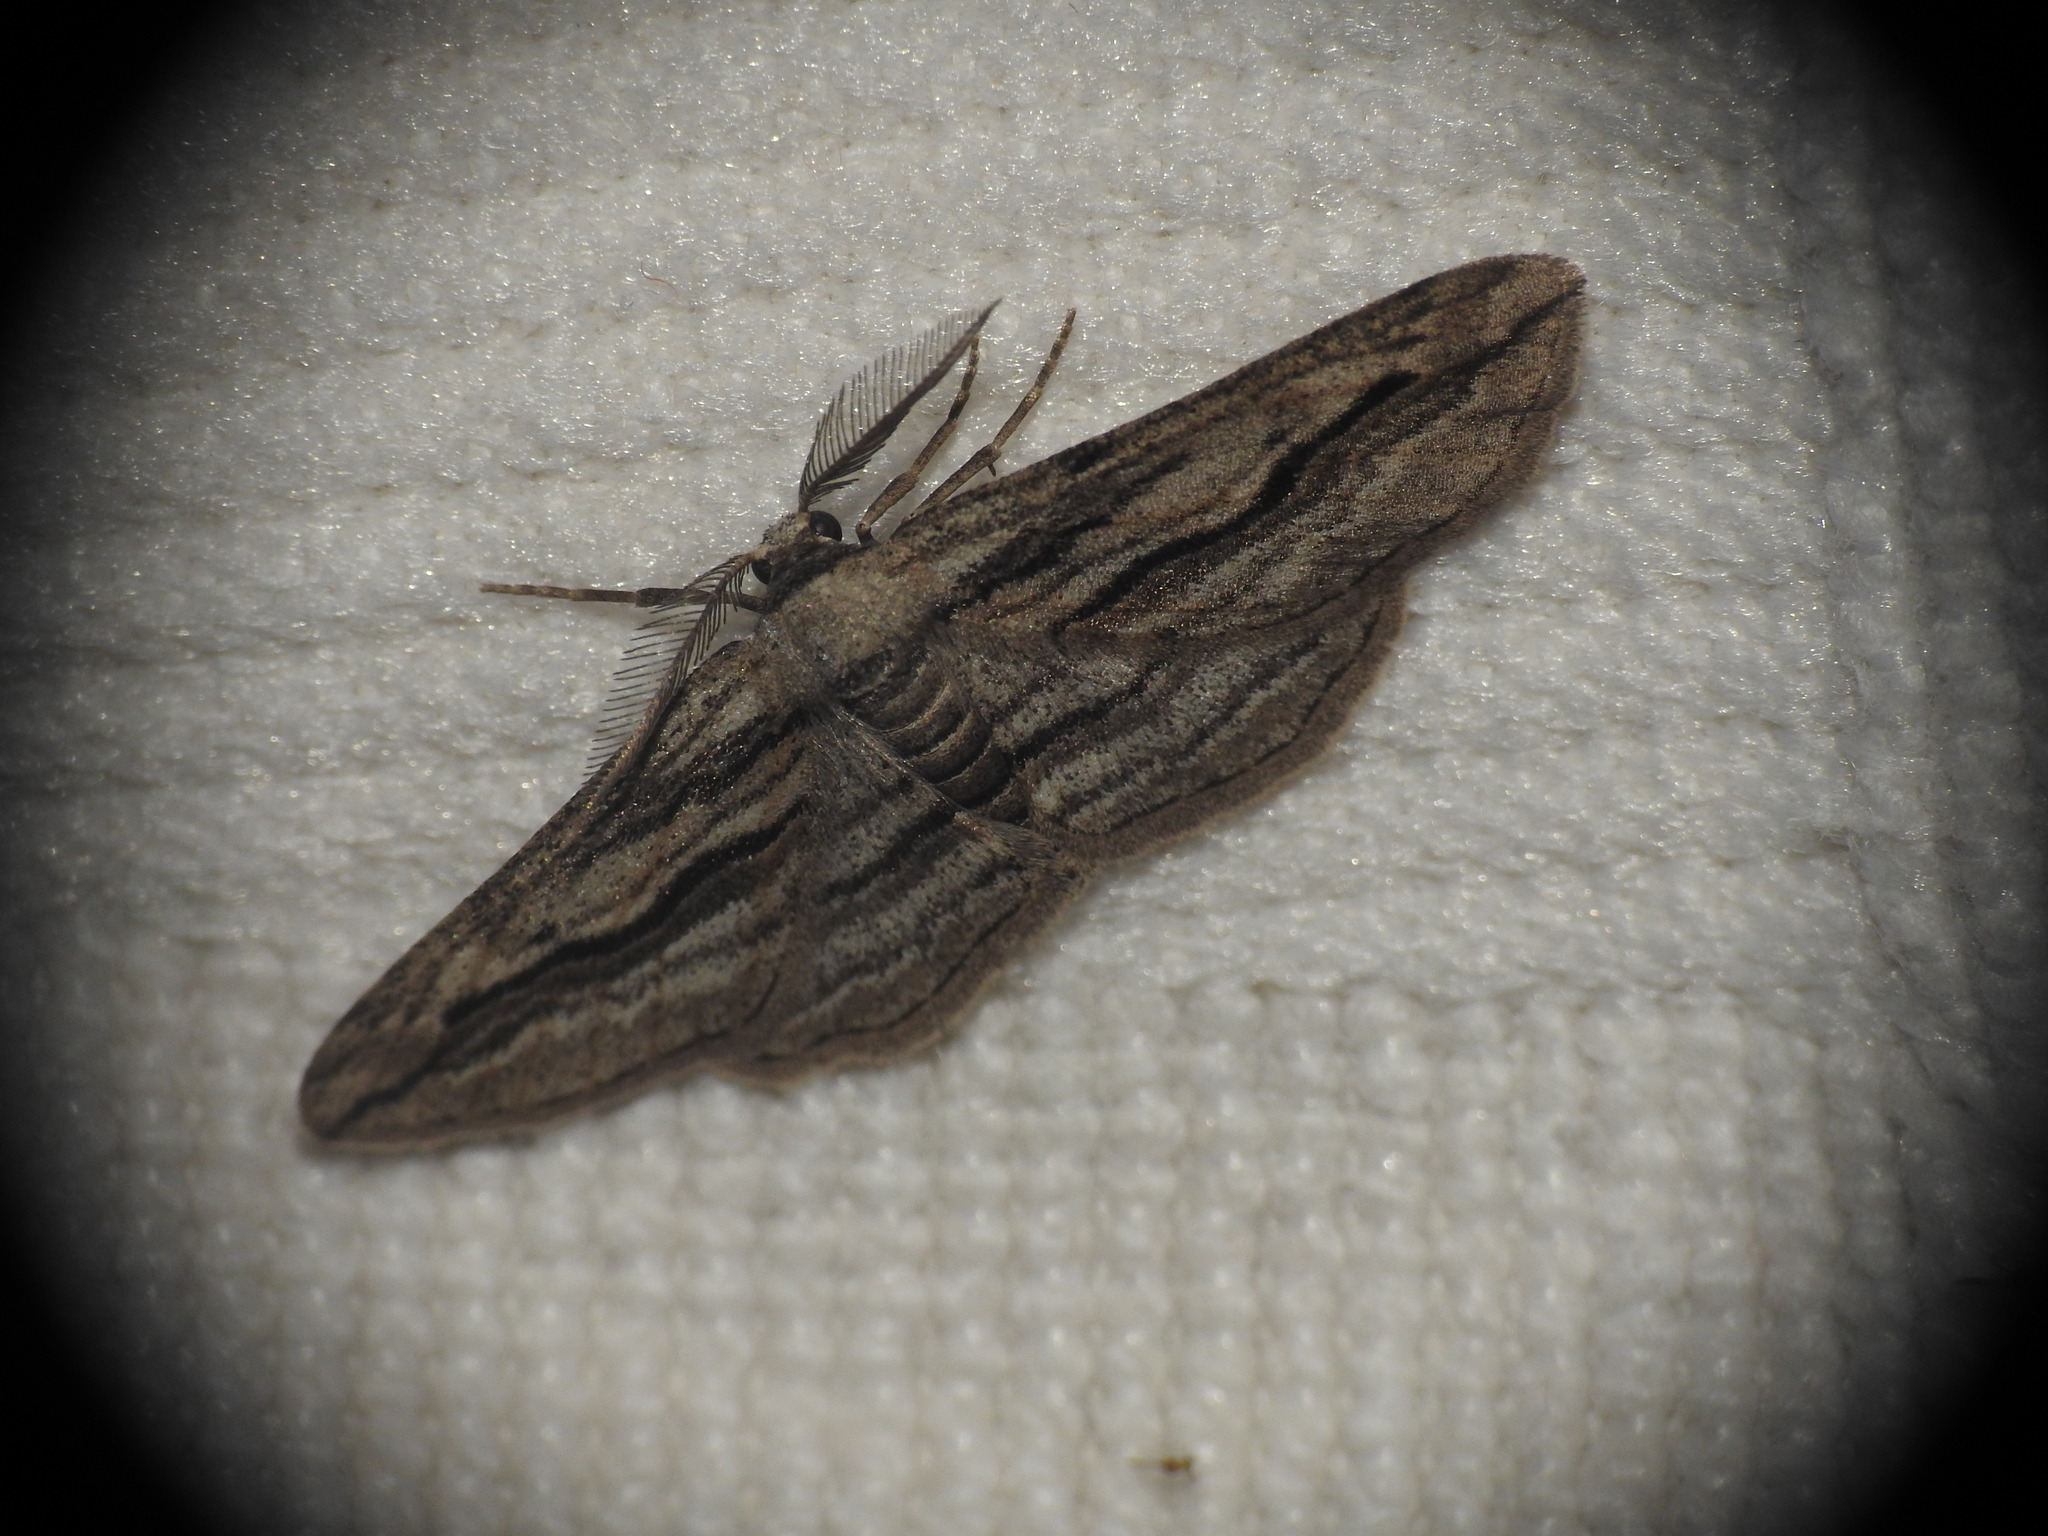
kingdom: Animalia
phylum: Arthropoda
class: Insecta
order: Lepidoptera
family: Geometridae
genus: Ecleora
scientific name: Ecleora solieraria
